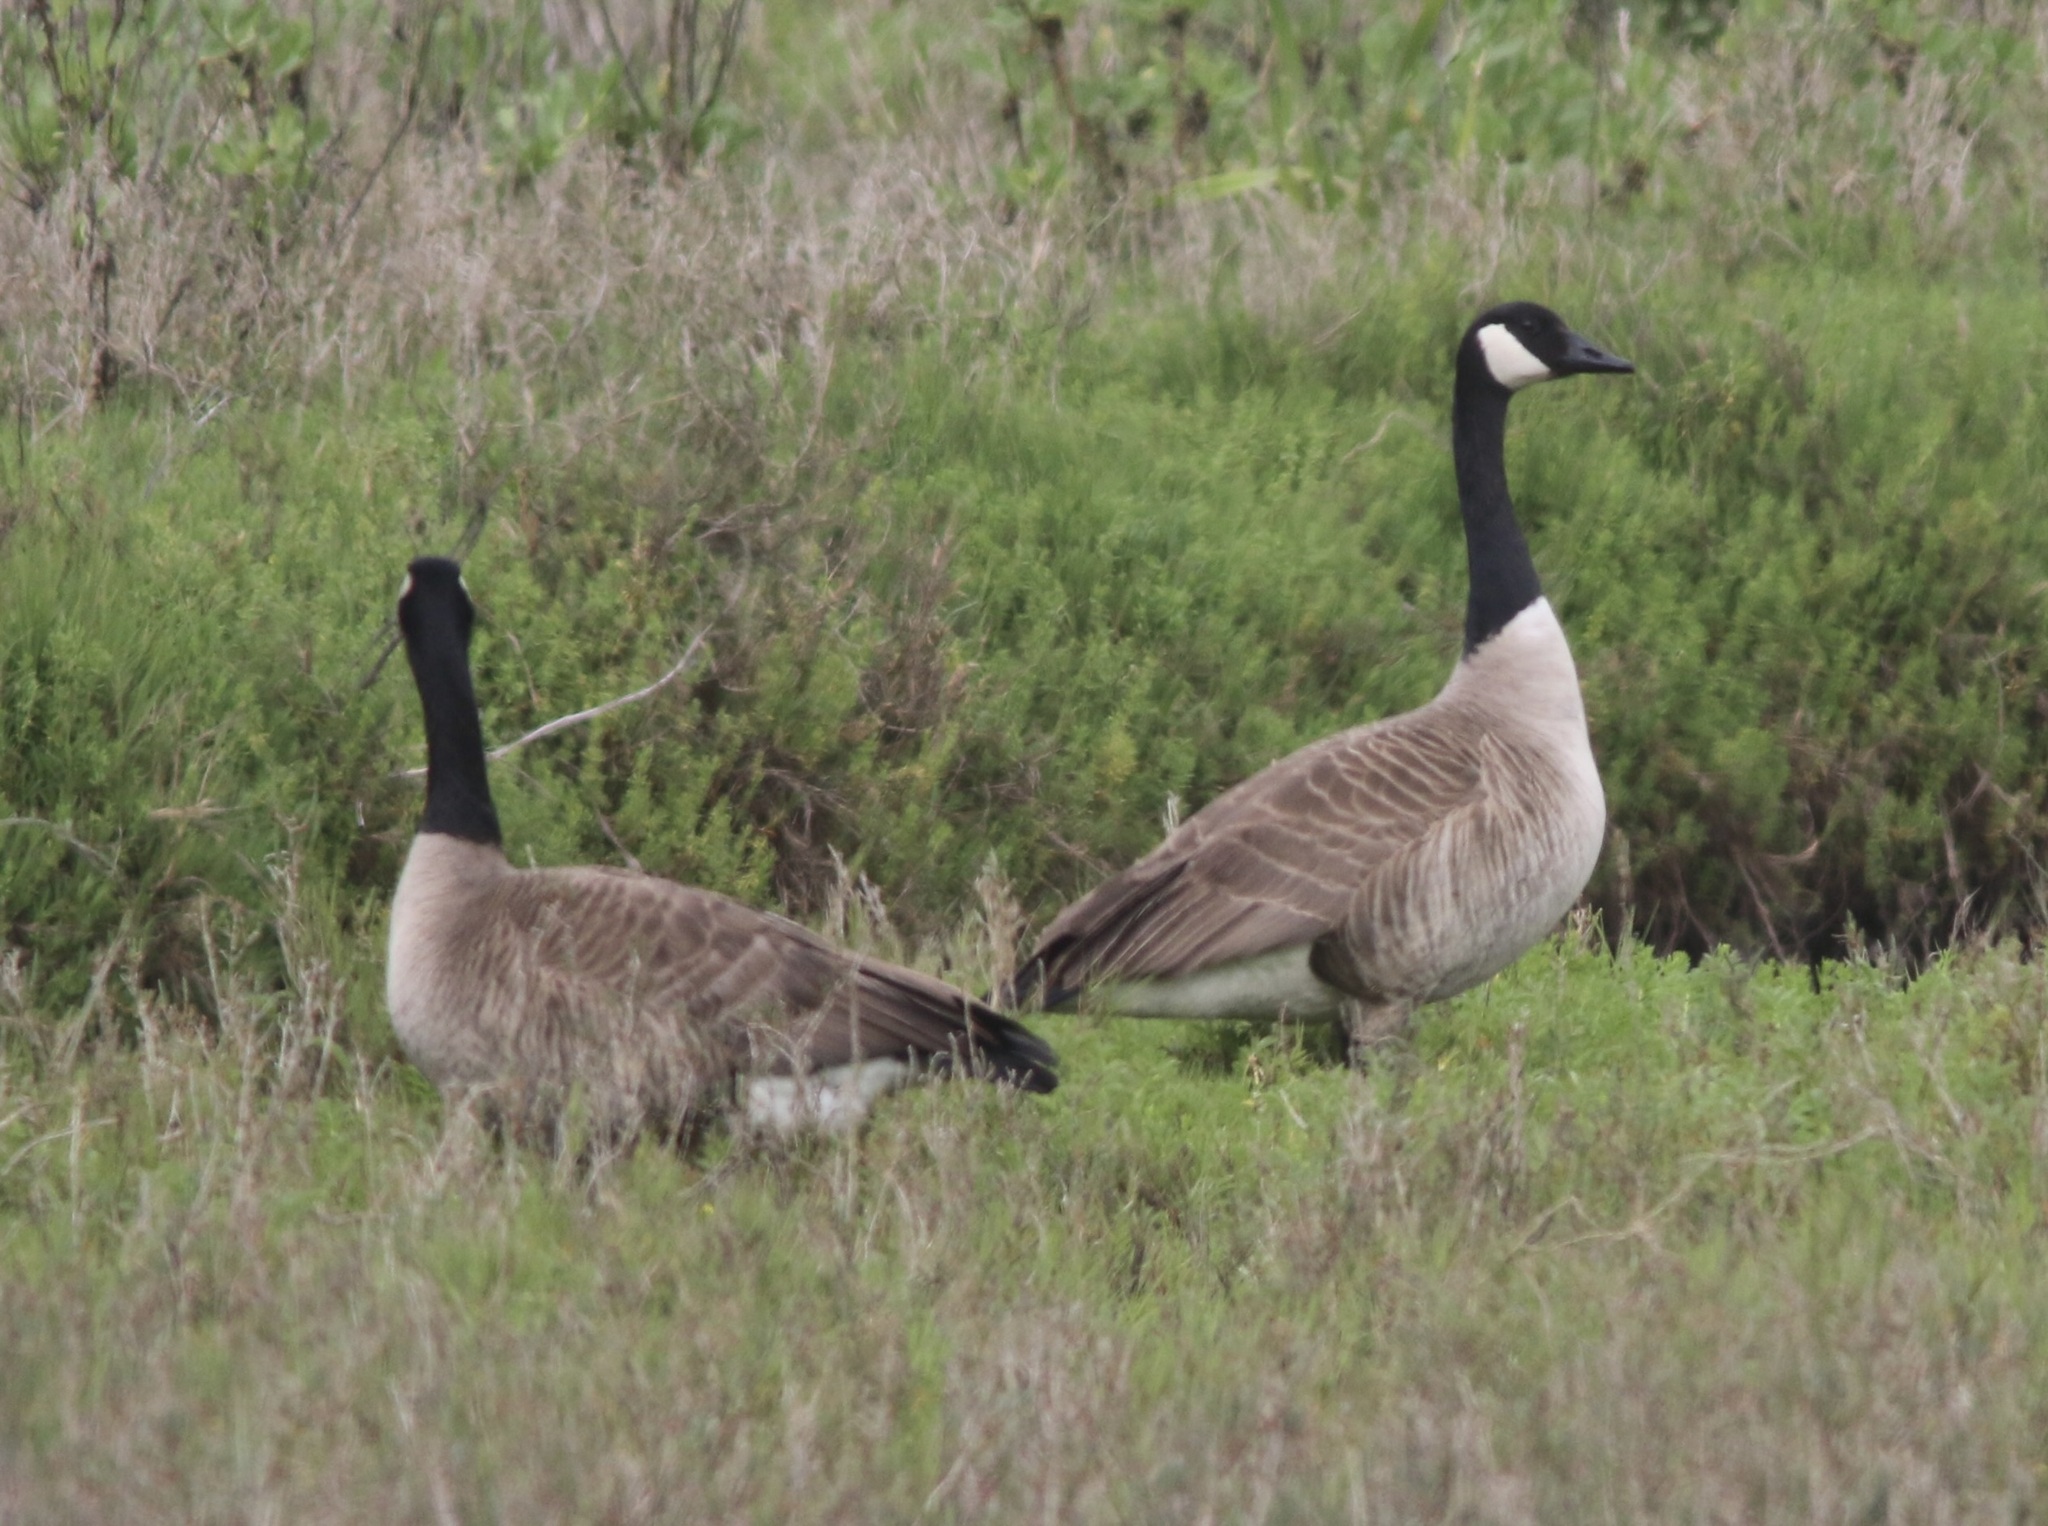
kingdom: Animalia
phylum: Chordata
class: Aves
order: Anseriformes
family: Anatidae
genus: Branta
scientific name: Branta canadensis
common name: Canada goose
